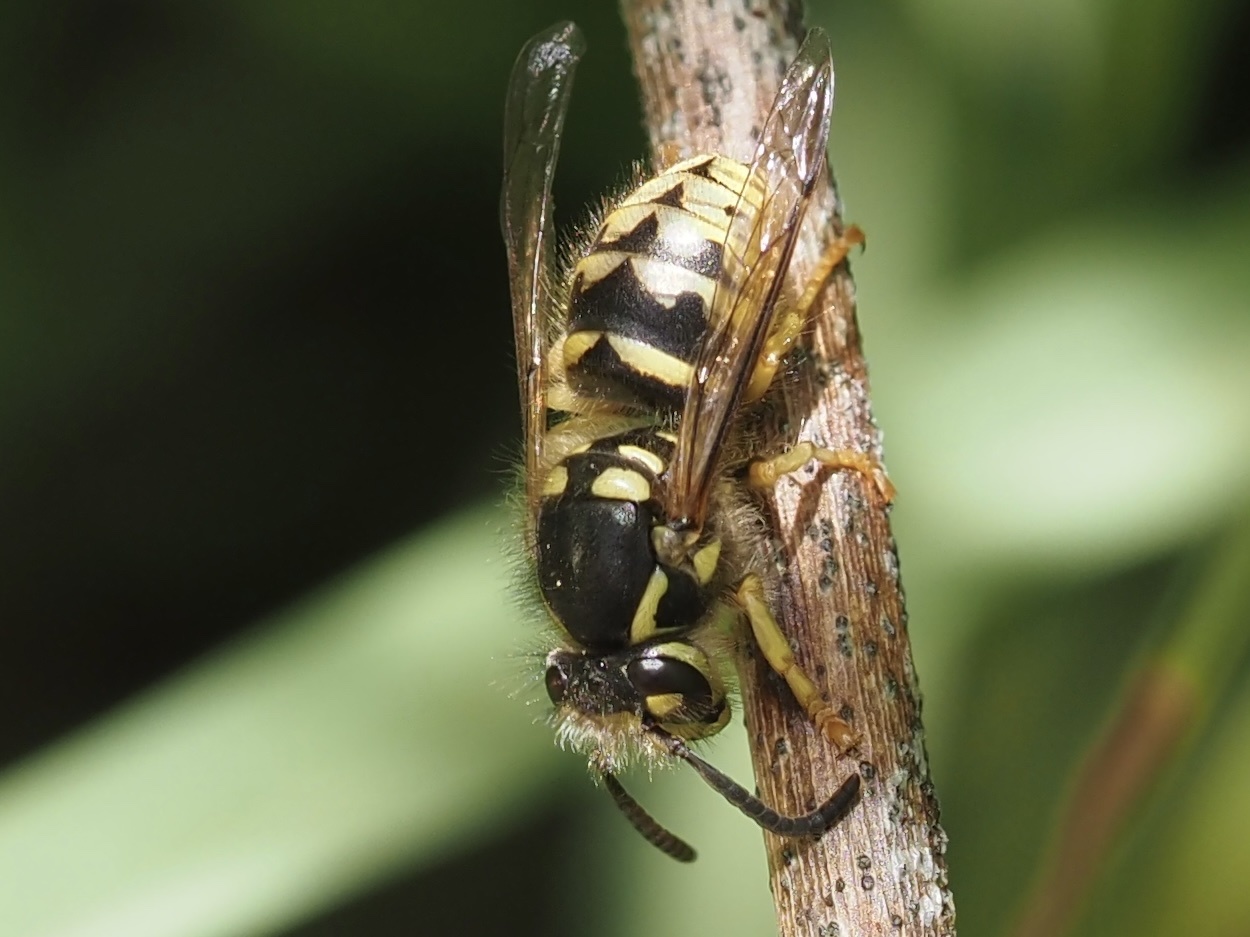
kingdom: Animalia
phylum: Arthropoda
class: Insecta
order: Hymenoptera
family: Vespidae
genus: Dolichovespula
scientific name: Dolichovespula arenaria
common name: Aerial yellowjacket
